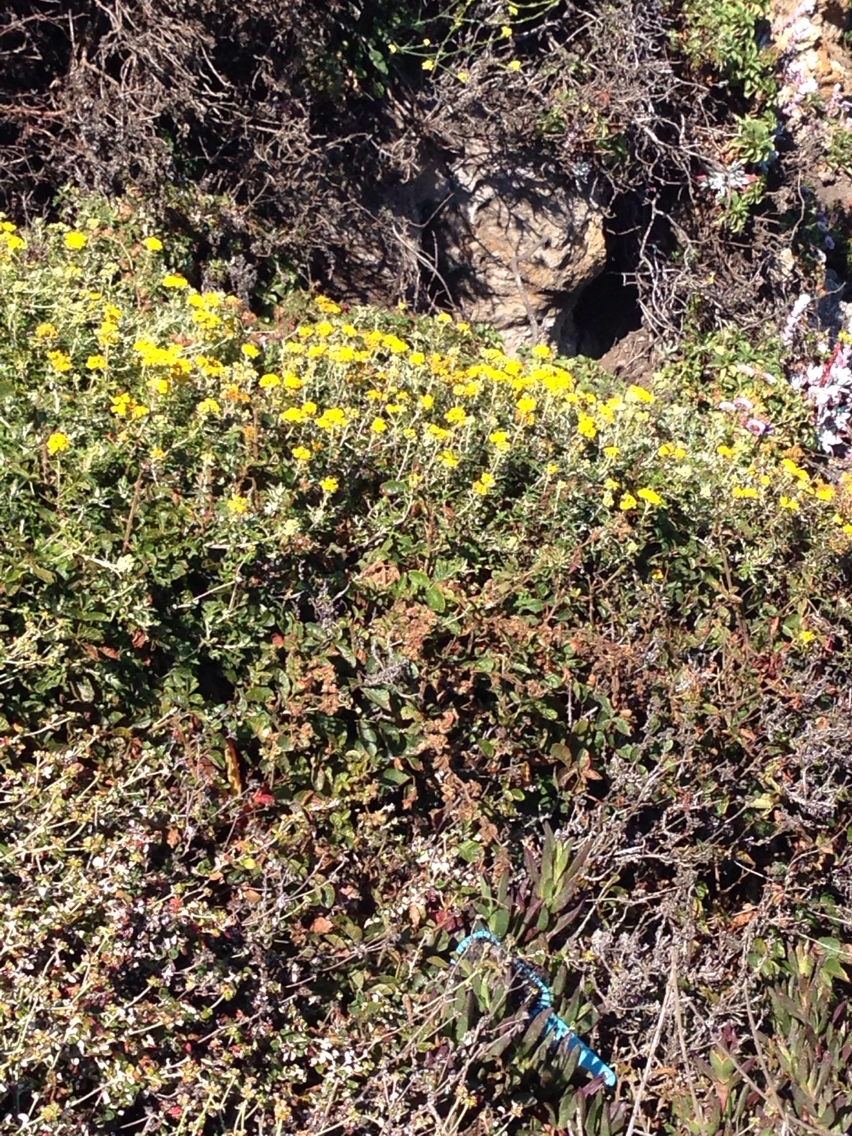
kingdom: Plantae
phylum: Tracheophyta
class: Magnoliopsida
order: Asterales
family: Asteraceae
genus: Eriophyllum
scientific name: Eriophyllum staechadifolium
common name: Lizardtail
